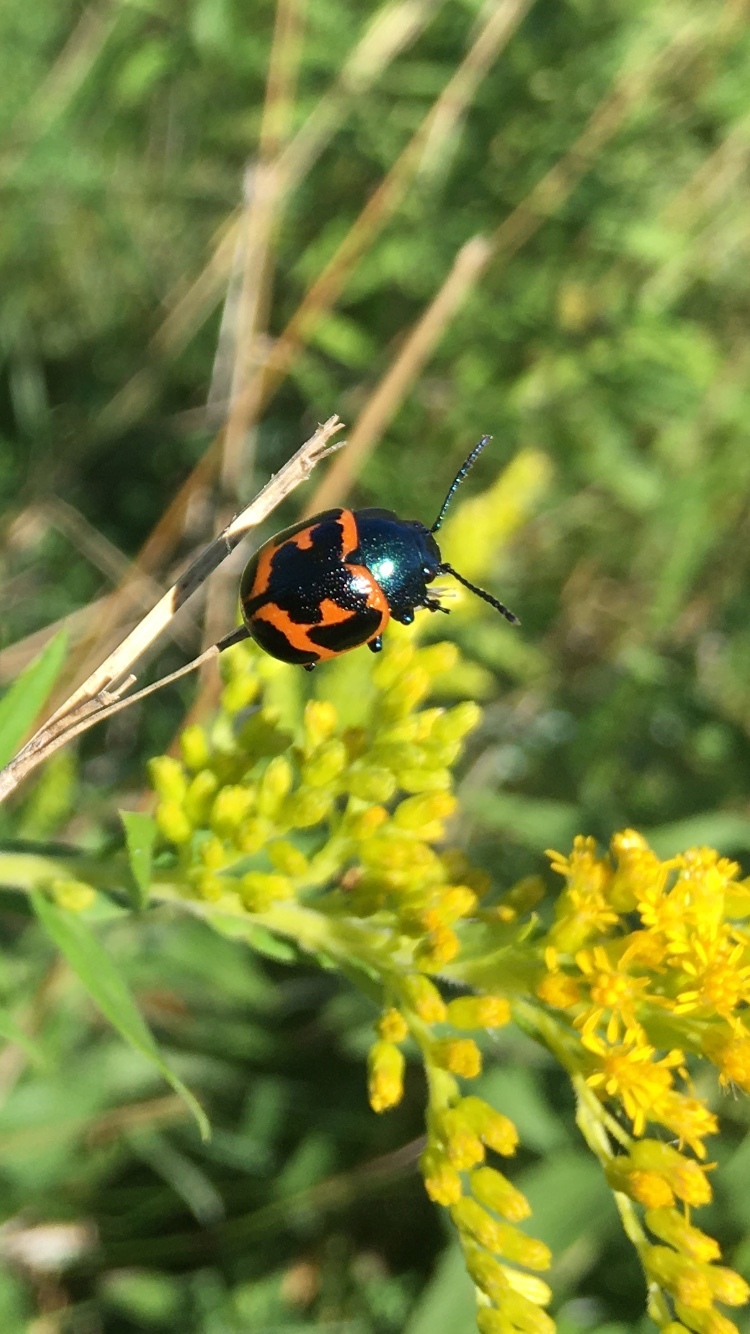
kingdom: Animalia
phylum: Arthropoda
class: Insecta
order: Coleoptera
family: Chrysomelidae
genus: Labidomera
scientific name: Labidomera clivicollis
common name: Swamp milkweed leaf beetle
